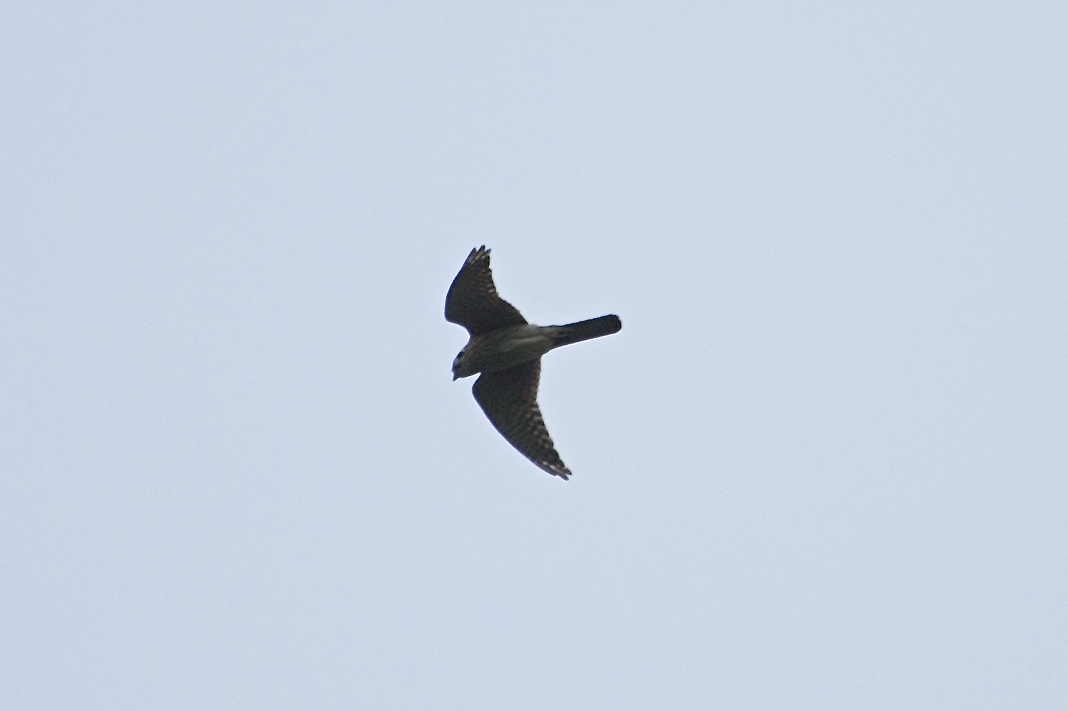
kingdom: Animalia
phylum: Chordata
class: Aves
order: Falconiformes
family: Falconidae
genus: Falco
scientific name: Falco sparverius
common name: American kestrel
